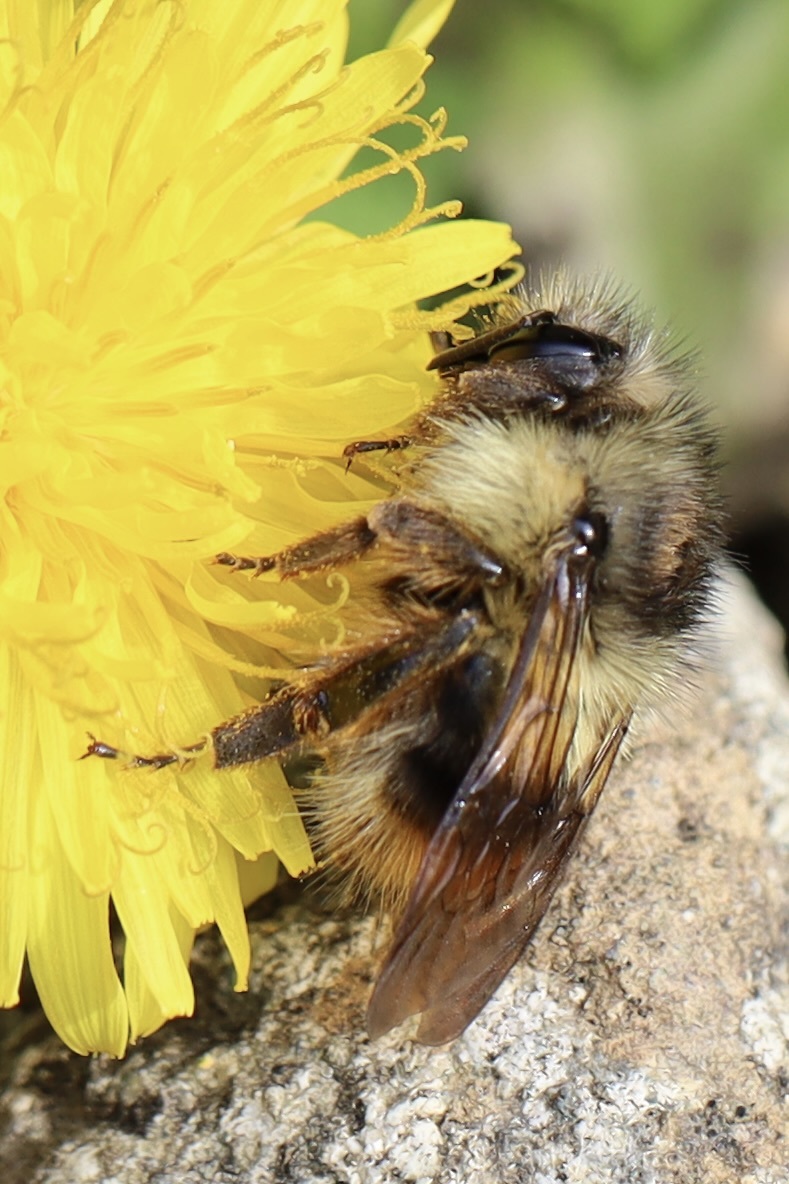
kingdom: Animalia
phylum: Arthropoda
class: Insecta
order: Hymenoptera
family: Apidae
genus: Bombus
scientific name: Bombus mixtus
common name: Fuzzy-horned bumble bee
